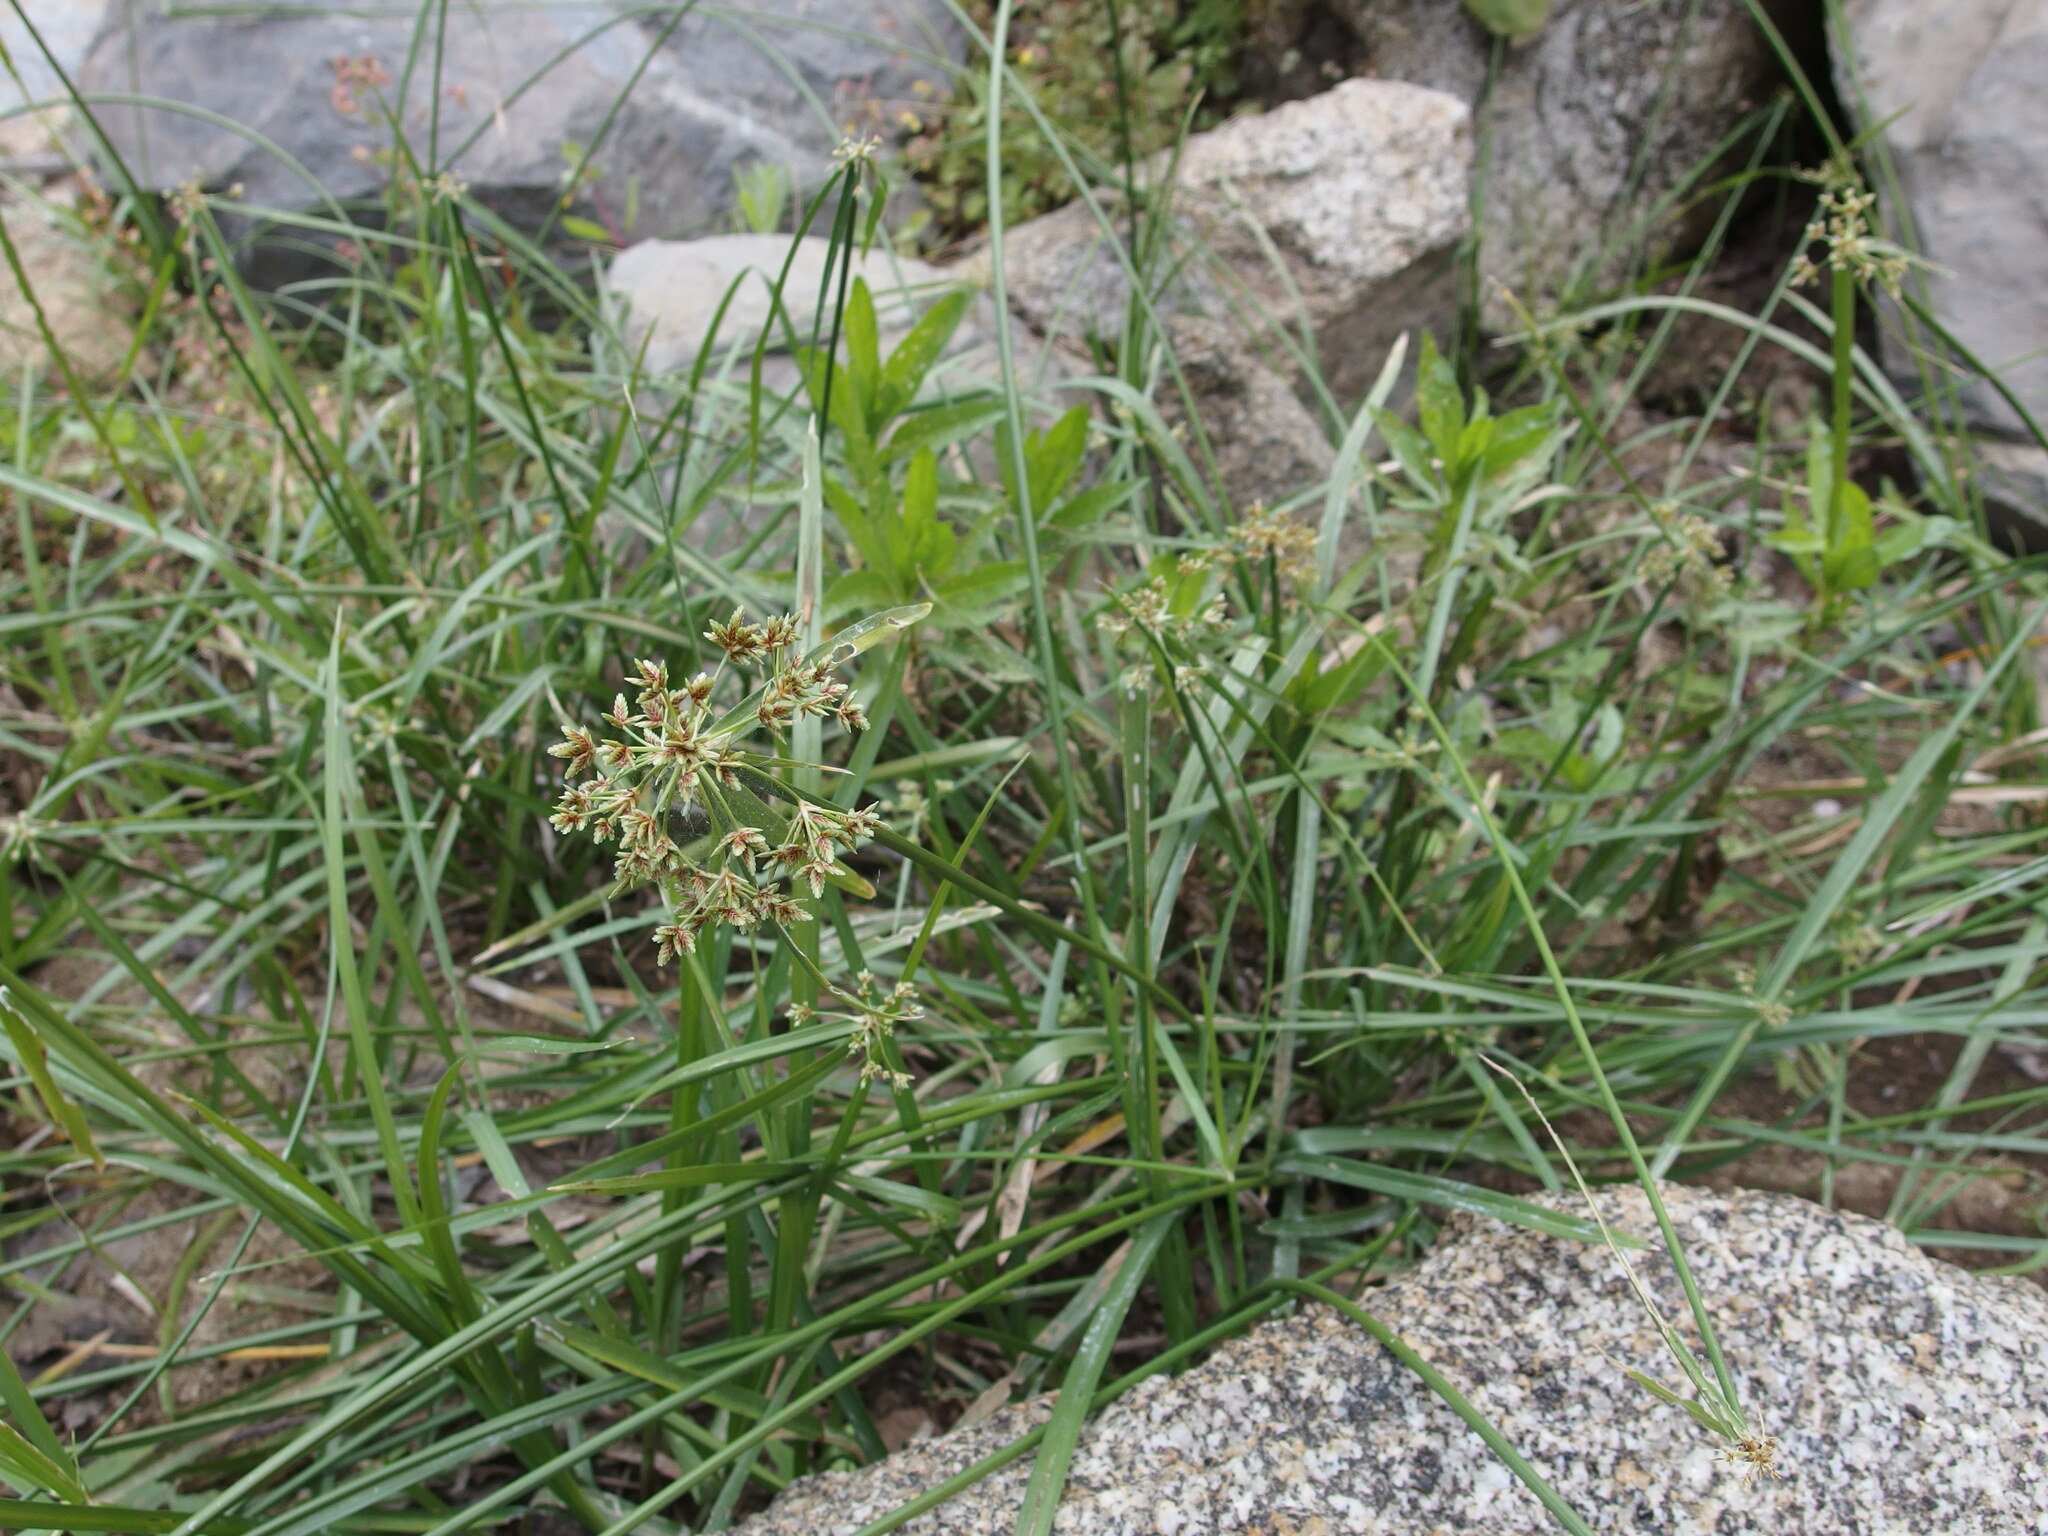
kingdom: Plantae
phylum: Tracheophyta
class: Liliopsida
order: Poales
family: Cyperaceae
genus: Cyperus
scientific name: Cyperus dioicus
